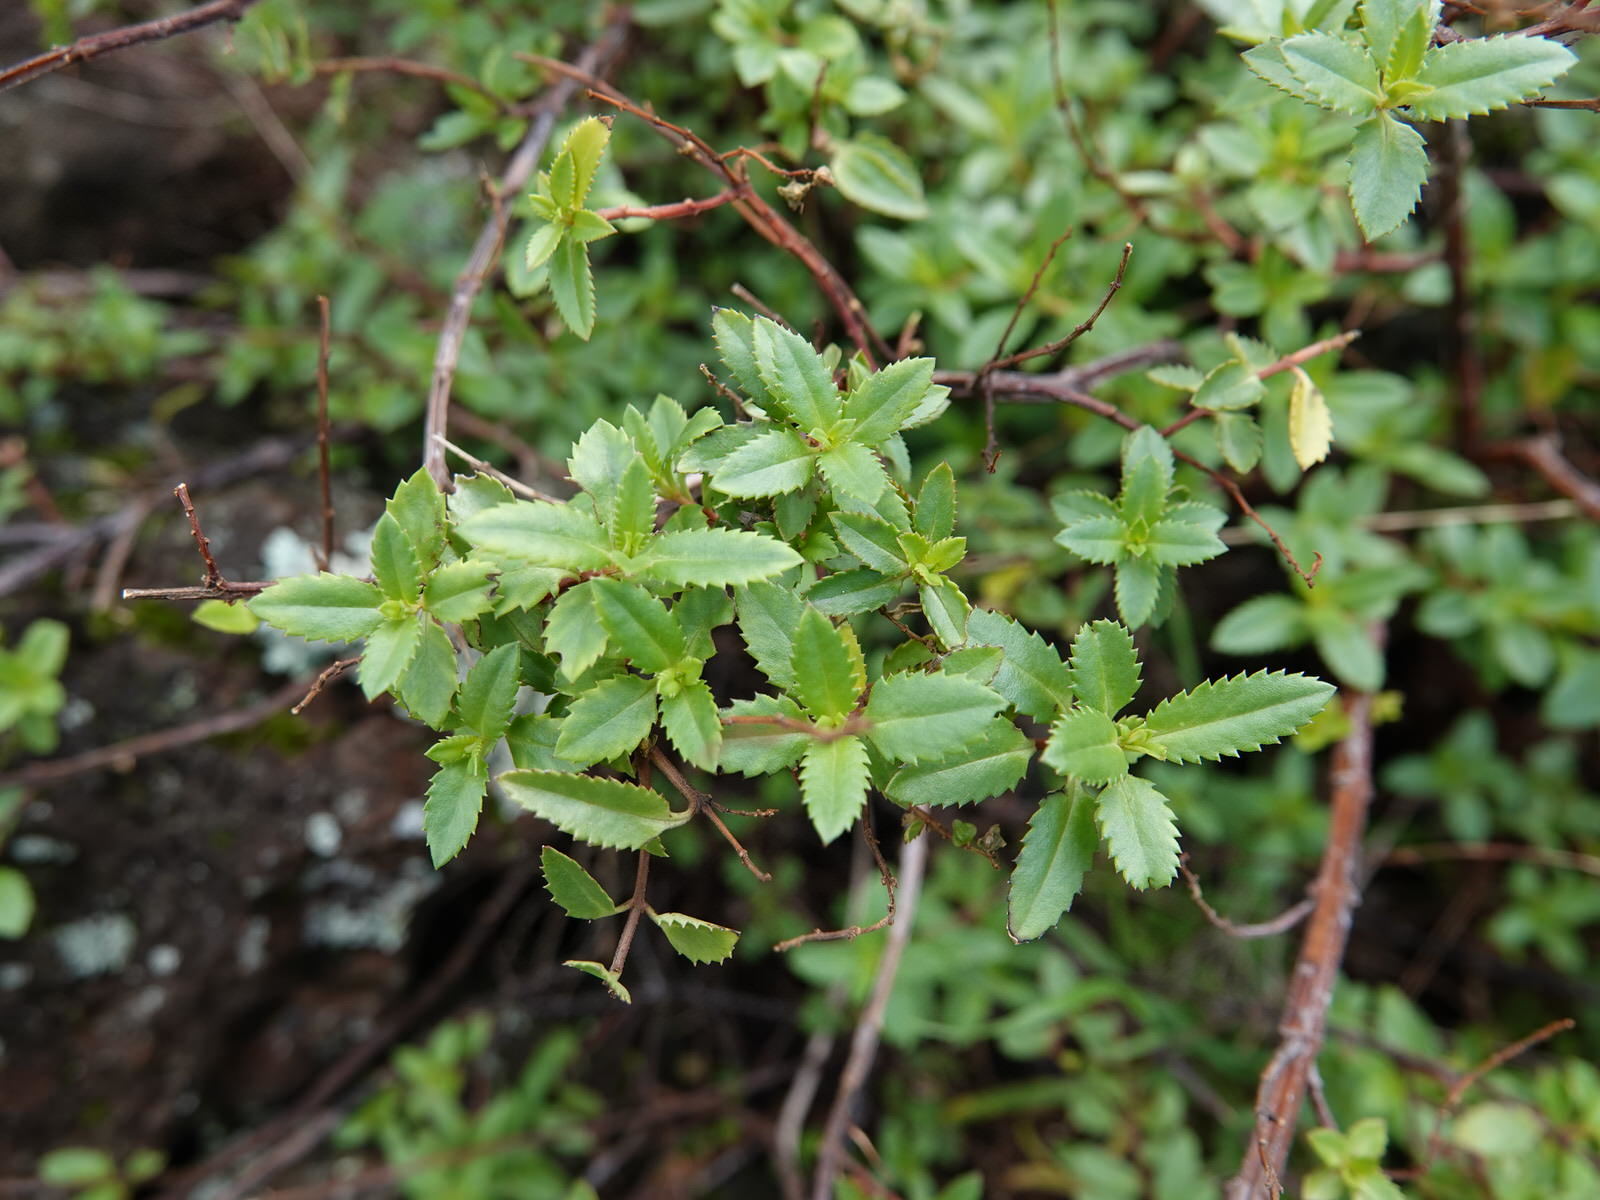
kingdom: Plantae
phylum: Tracheophyta
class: Magnoliopsida
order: Saxifragales
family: Haloragaceae
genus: Haloragis
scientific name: Haloragis erecta
